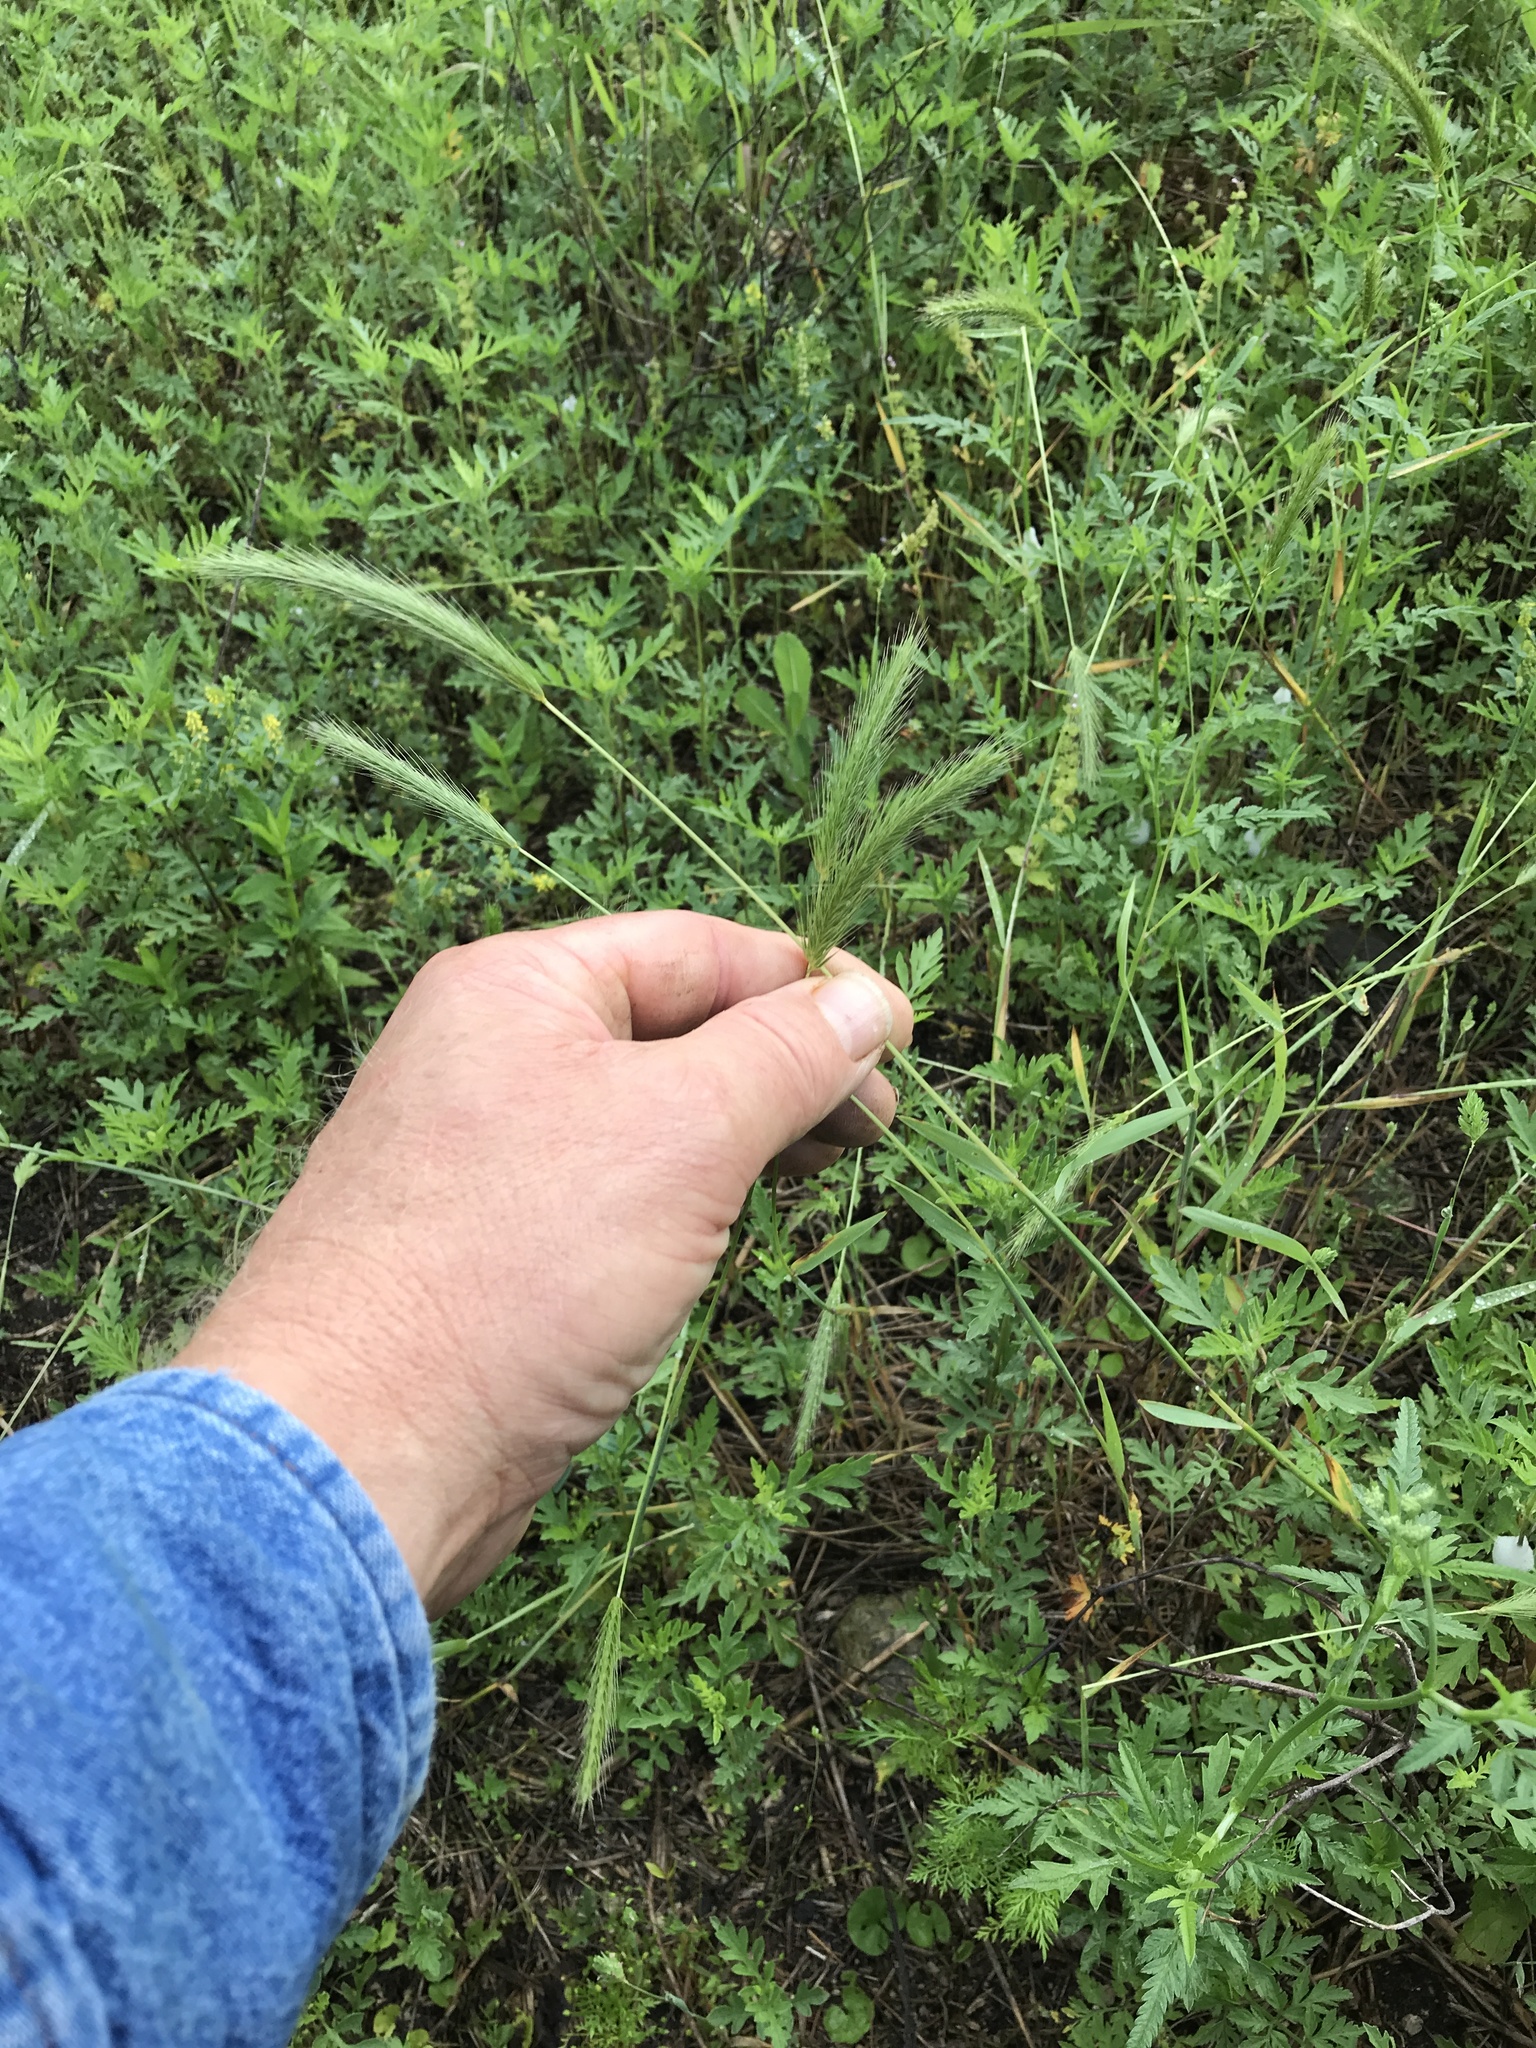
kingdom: Plantae
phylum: Tracheophyta
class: Liliopsida
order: Poales
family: Poaceae
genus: Hordeum
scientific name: Hordeum pusillum
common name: Little barley
